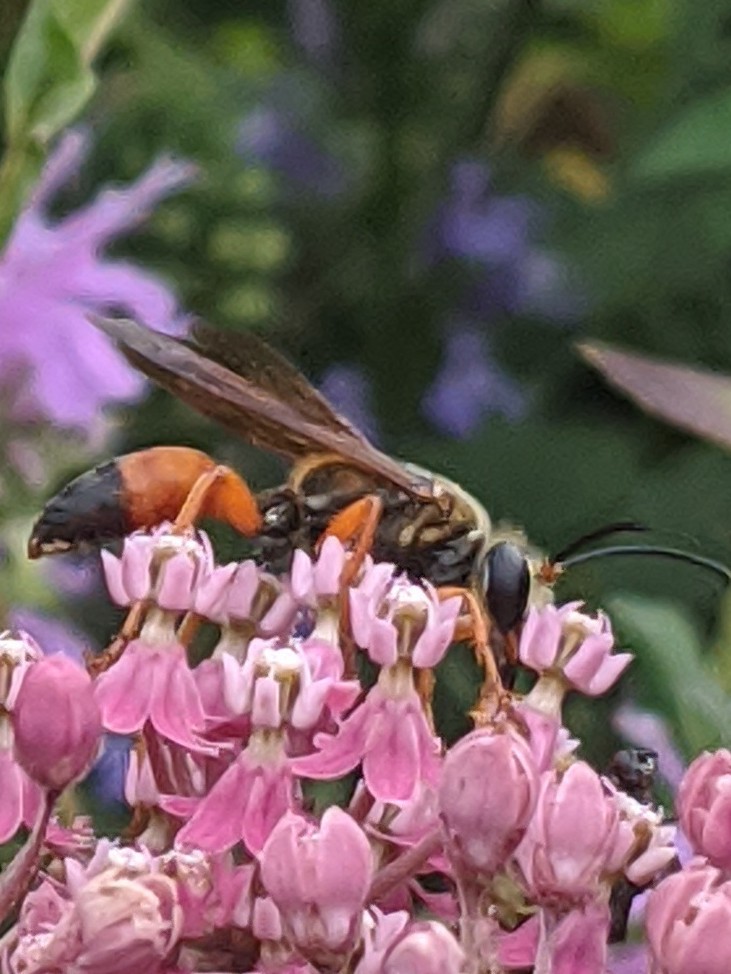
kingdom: Animalia
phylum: Arthropoda
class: Insecta
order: Hymenoptera
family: Sphecidae
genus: Sphex
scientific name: Sphex ichneumoneus
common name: Great golden digger wasp
